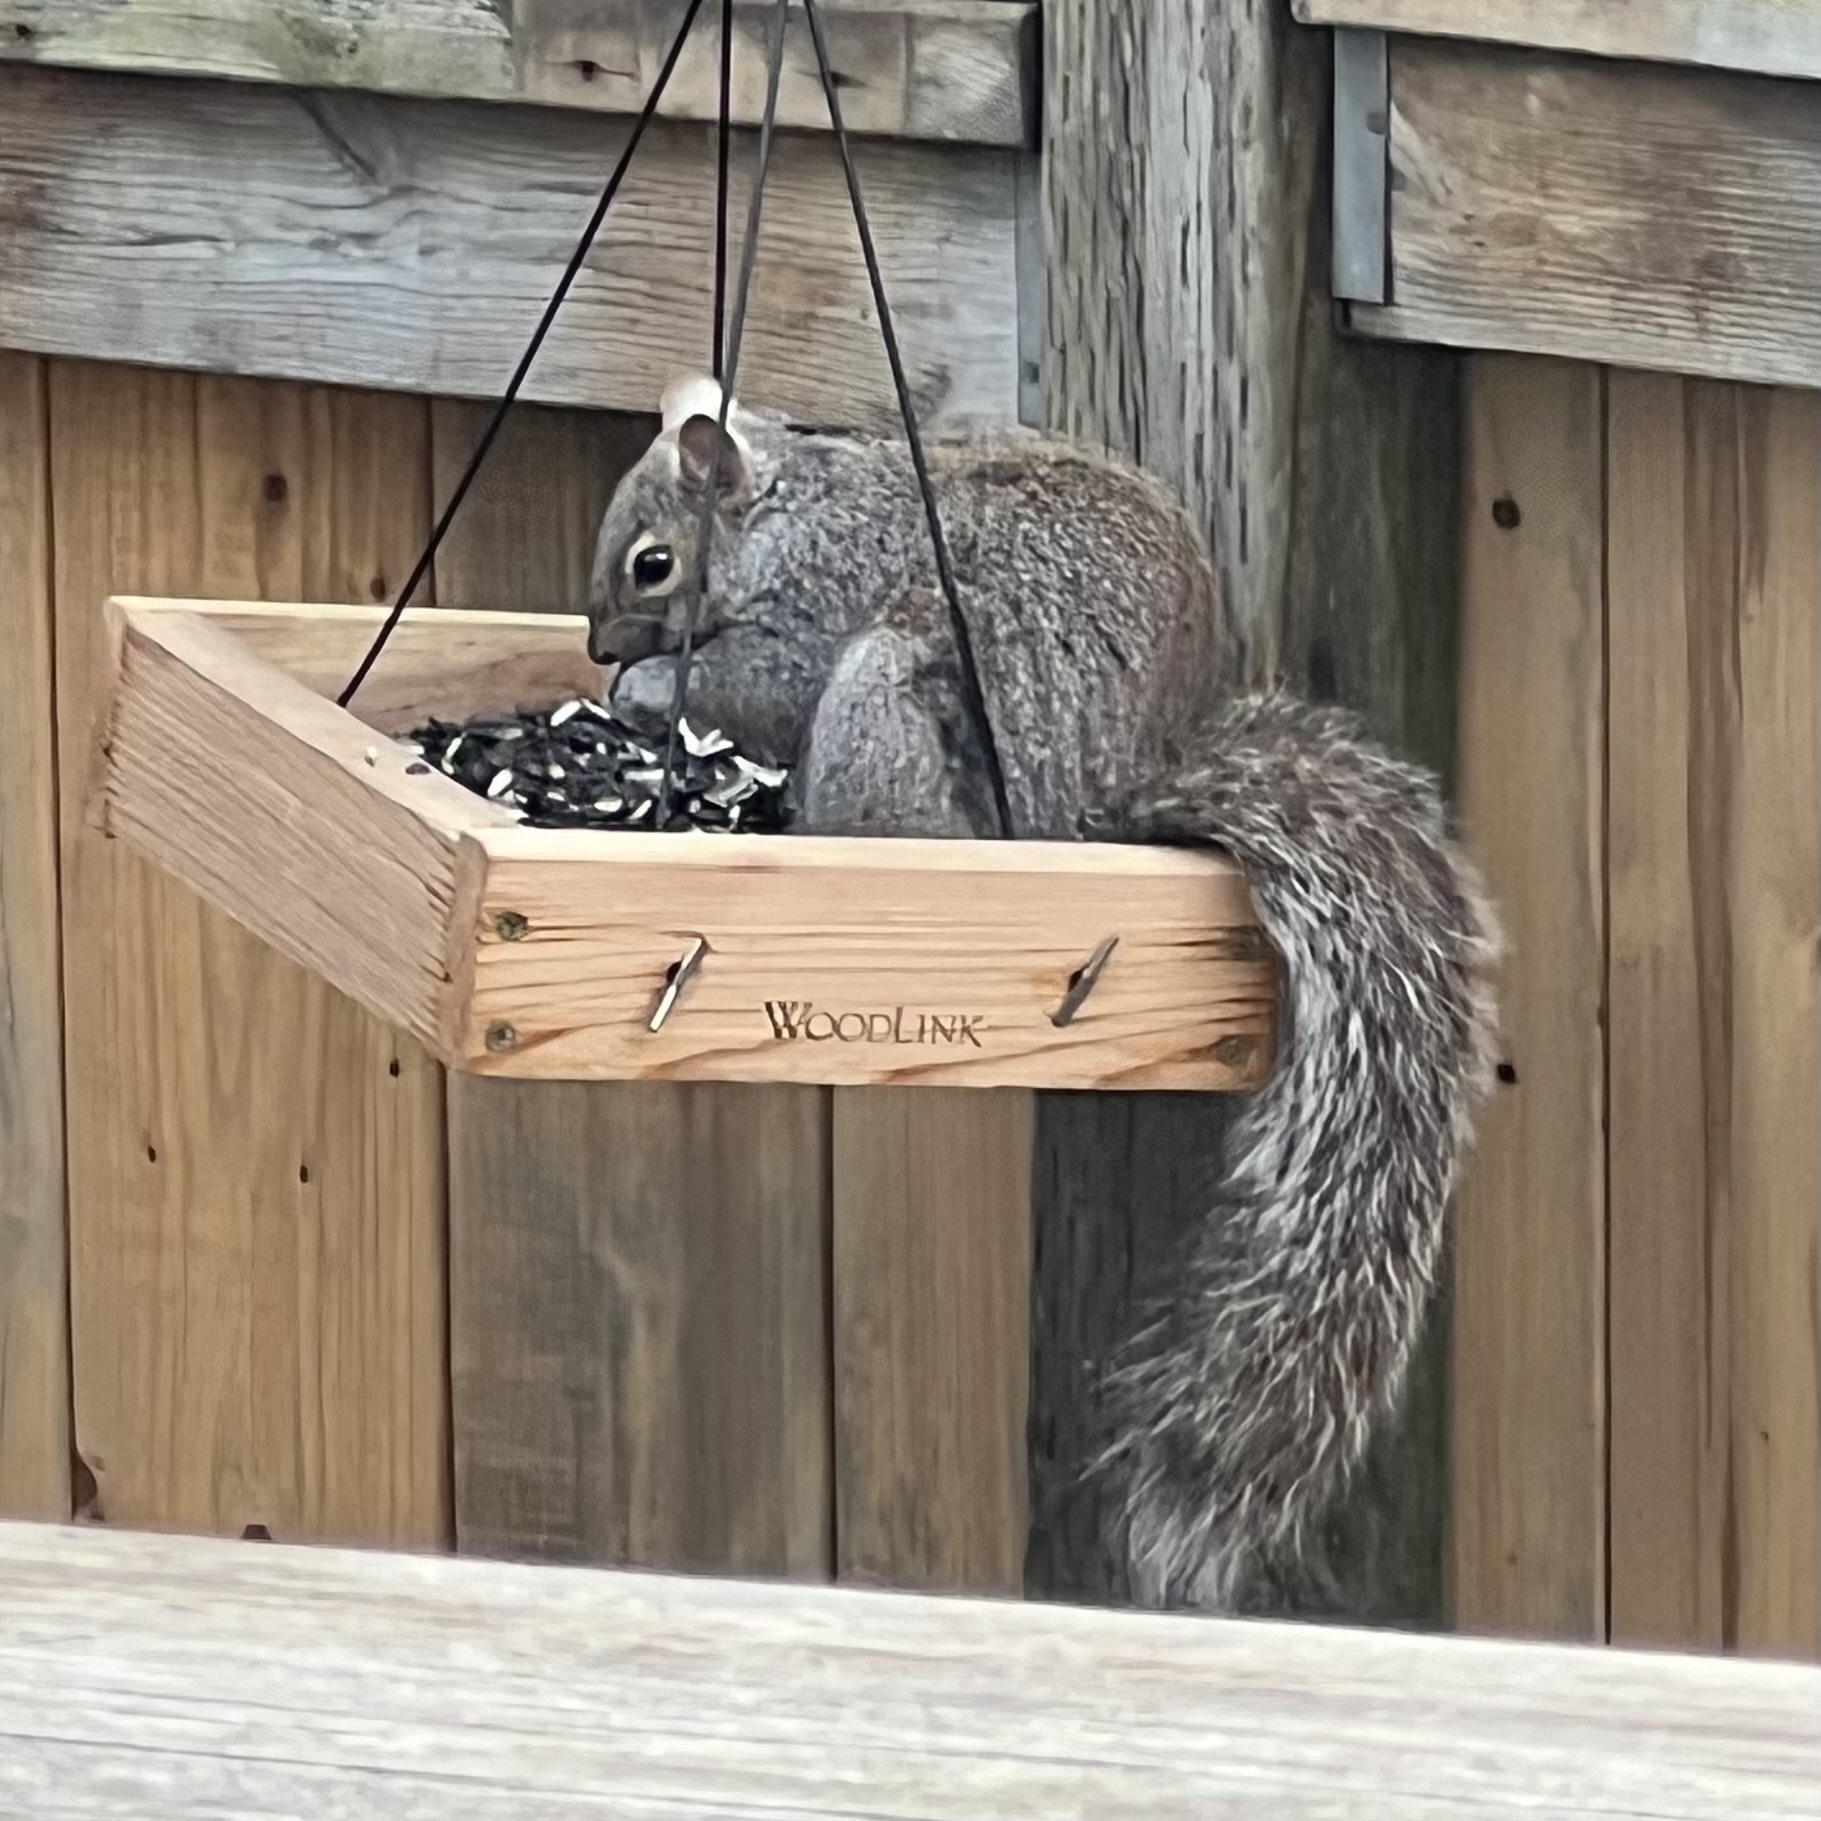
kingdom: Animalia
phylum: Chordata
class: Mammalia
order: Rodentia
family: Sciuridae
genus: Sciurus
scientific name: Sciurus carolinensis
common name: Eastern gray squirrel
